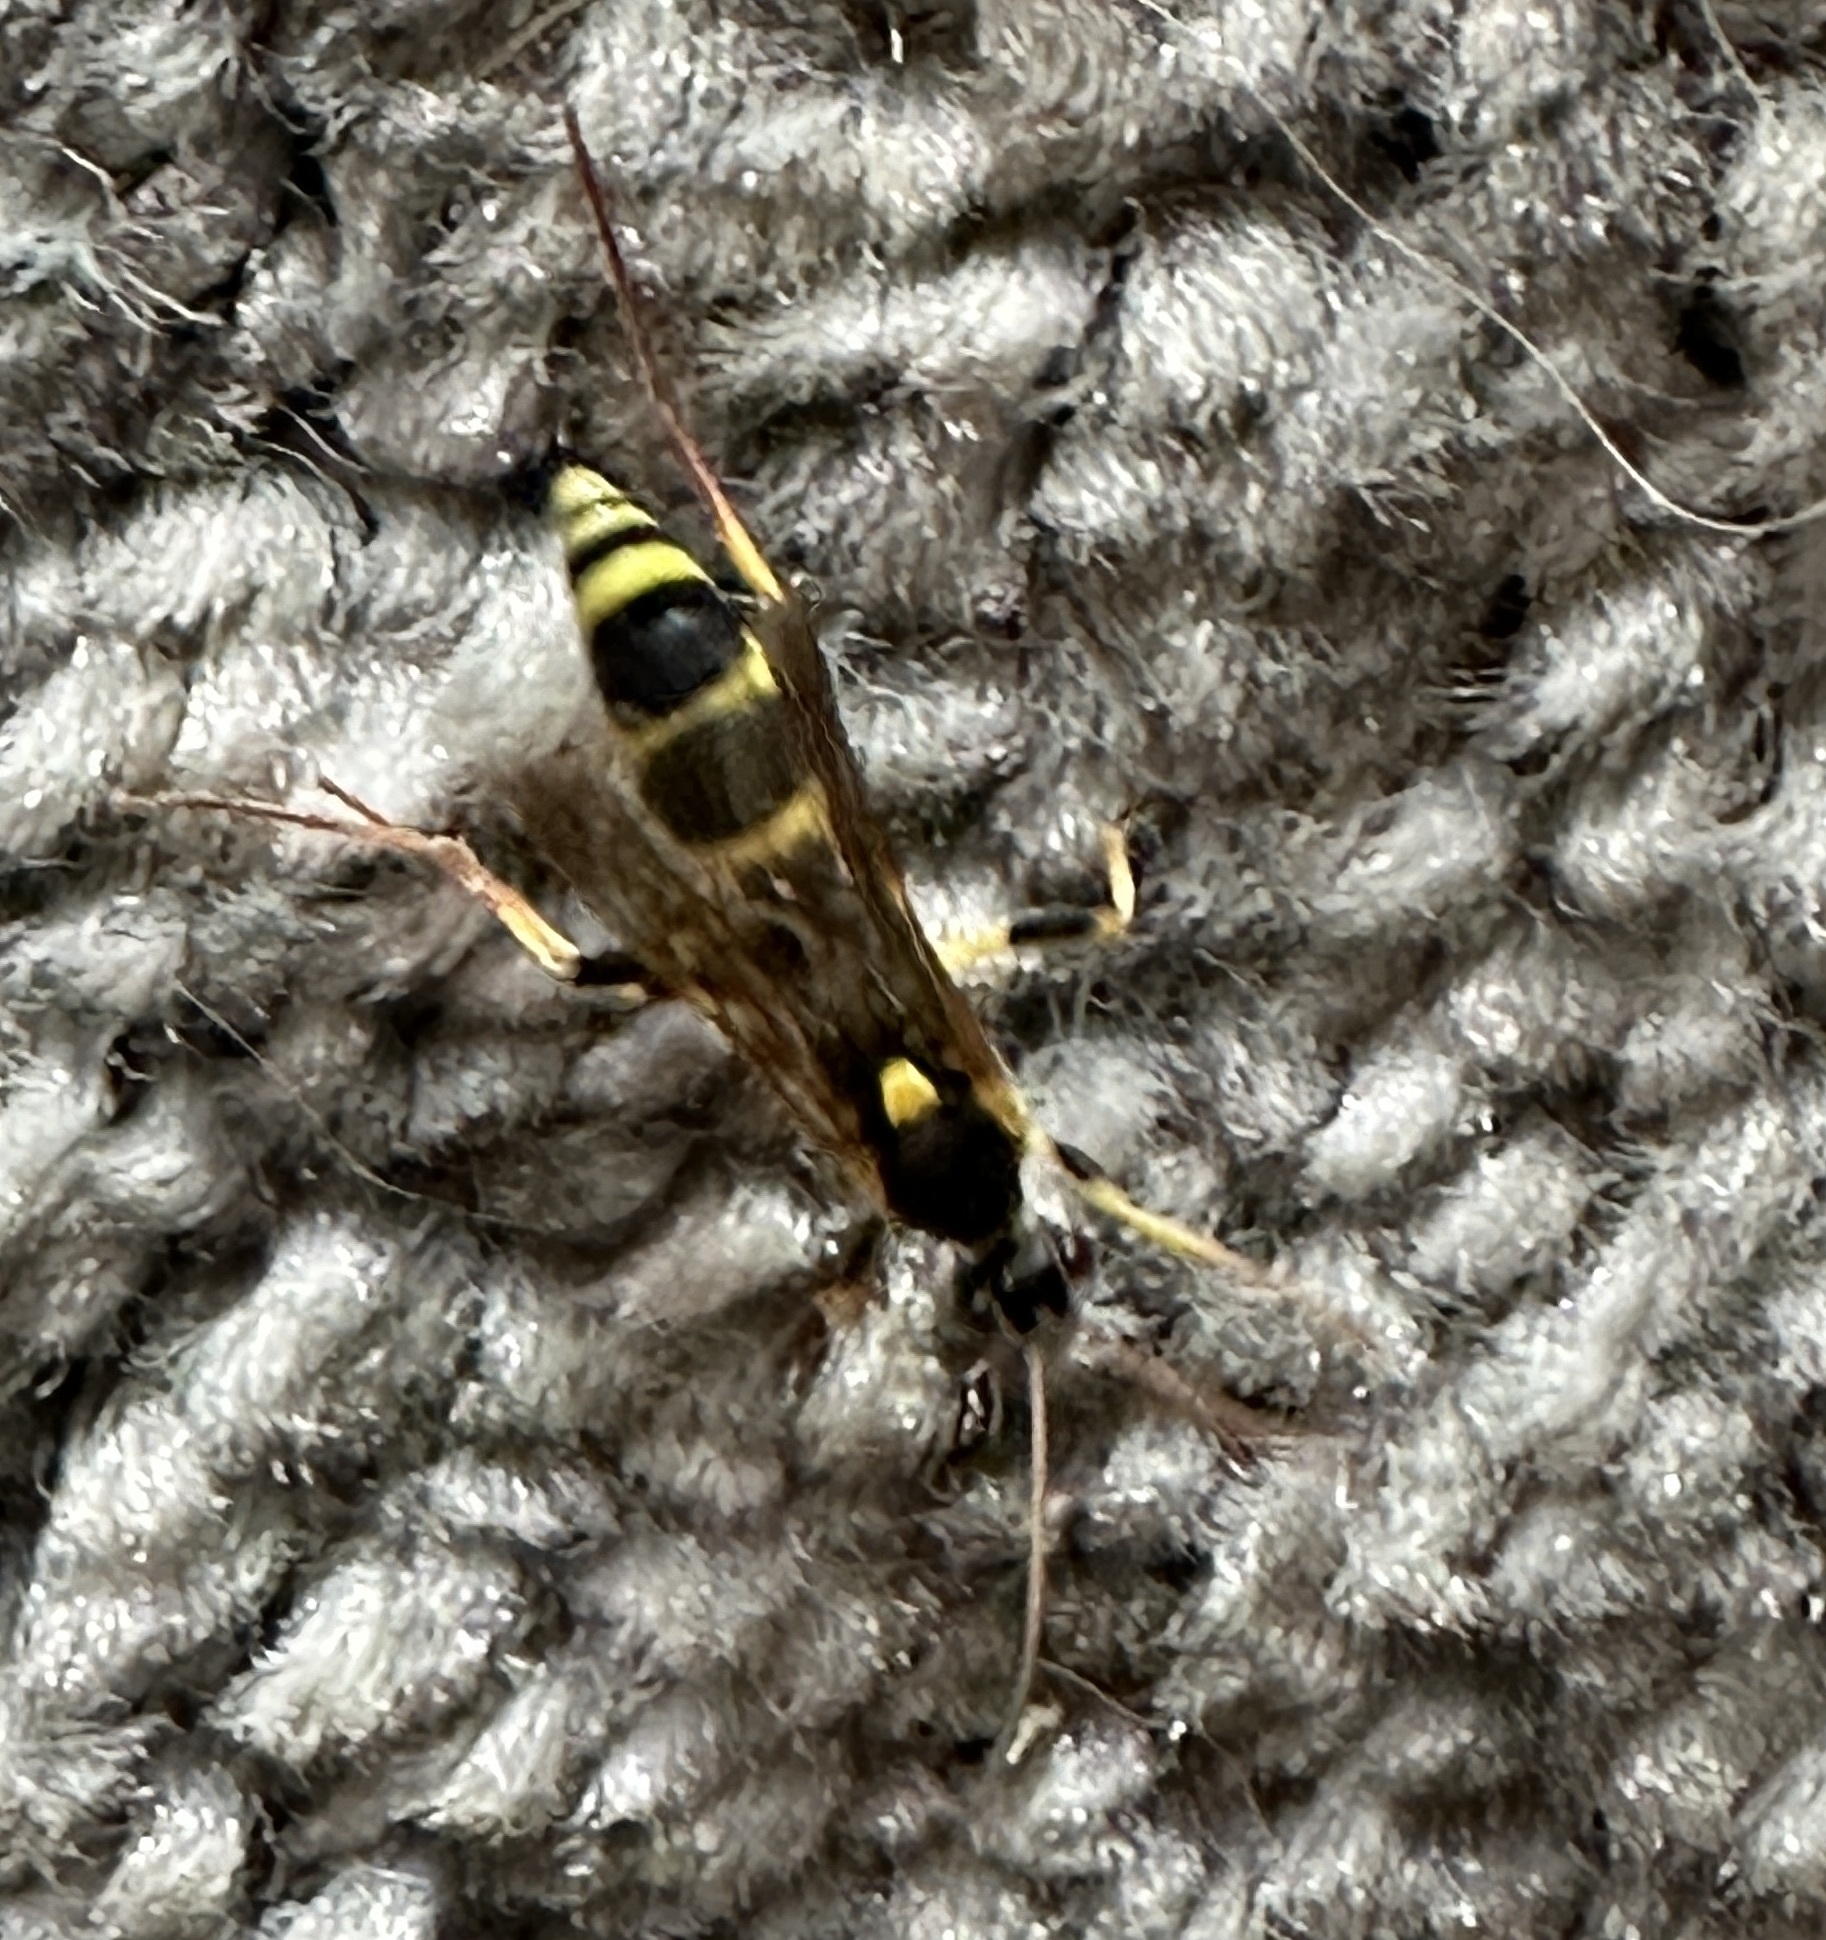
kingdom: Animalia
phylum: Arthropoda
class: Insecta
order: Hymenoptera
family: Ichneumonidae
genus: Amblyteles
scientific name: Amblyteles armatorius
